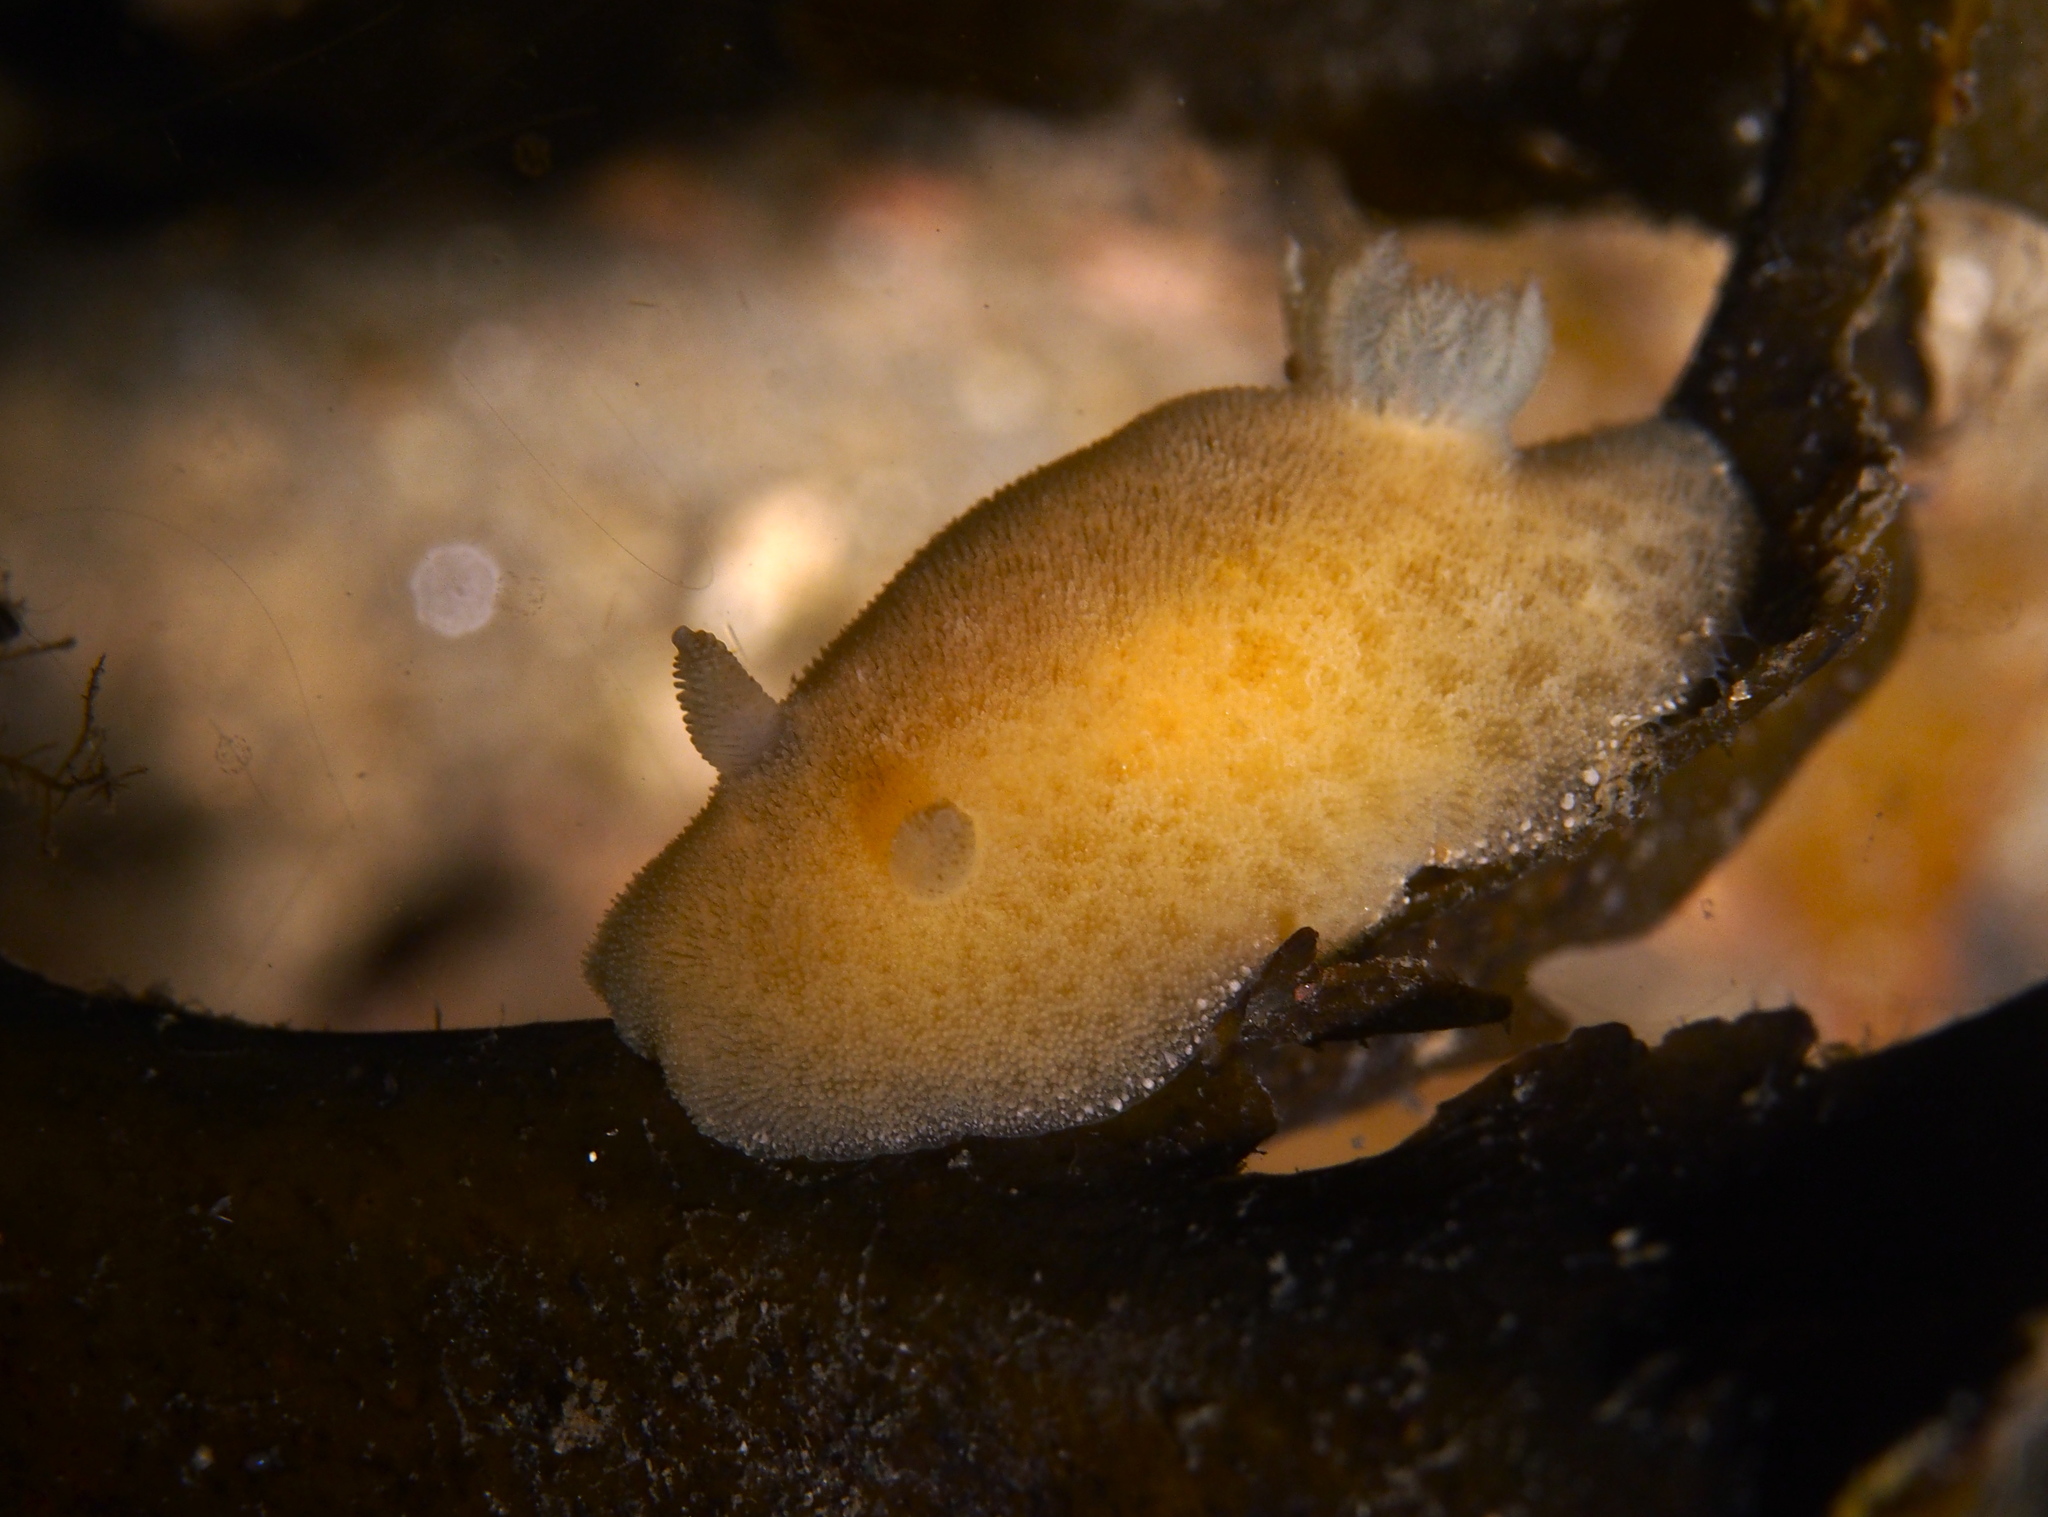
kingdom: Animalia
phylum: Mollusca
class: Gastropoda
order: Nudibranchia
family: Discodorididae
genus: Jorunna
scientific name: Jorunna tomentosa
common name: Grey sea slug
